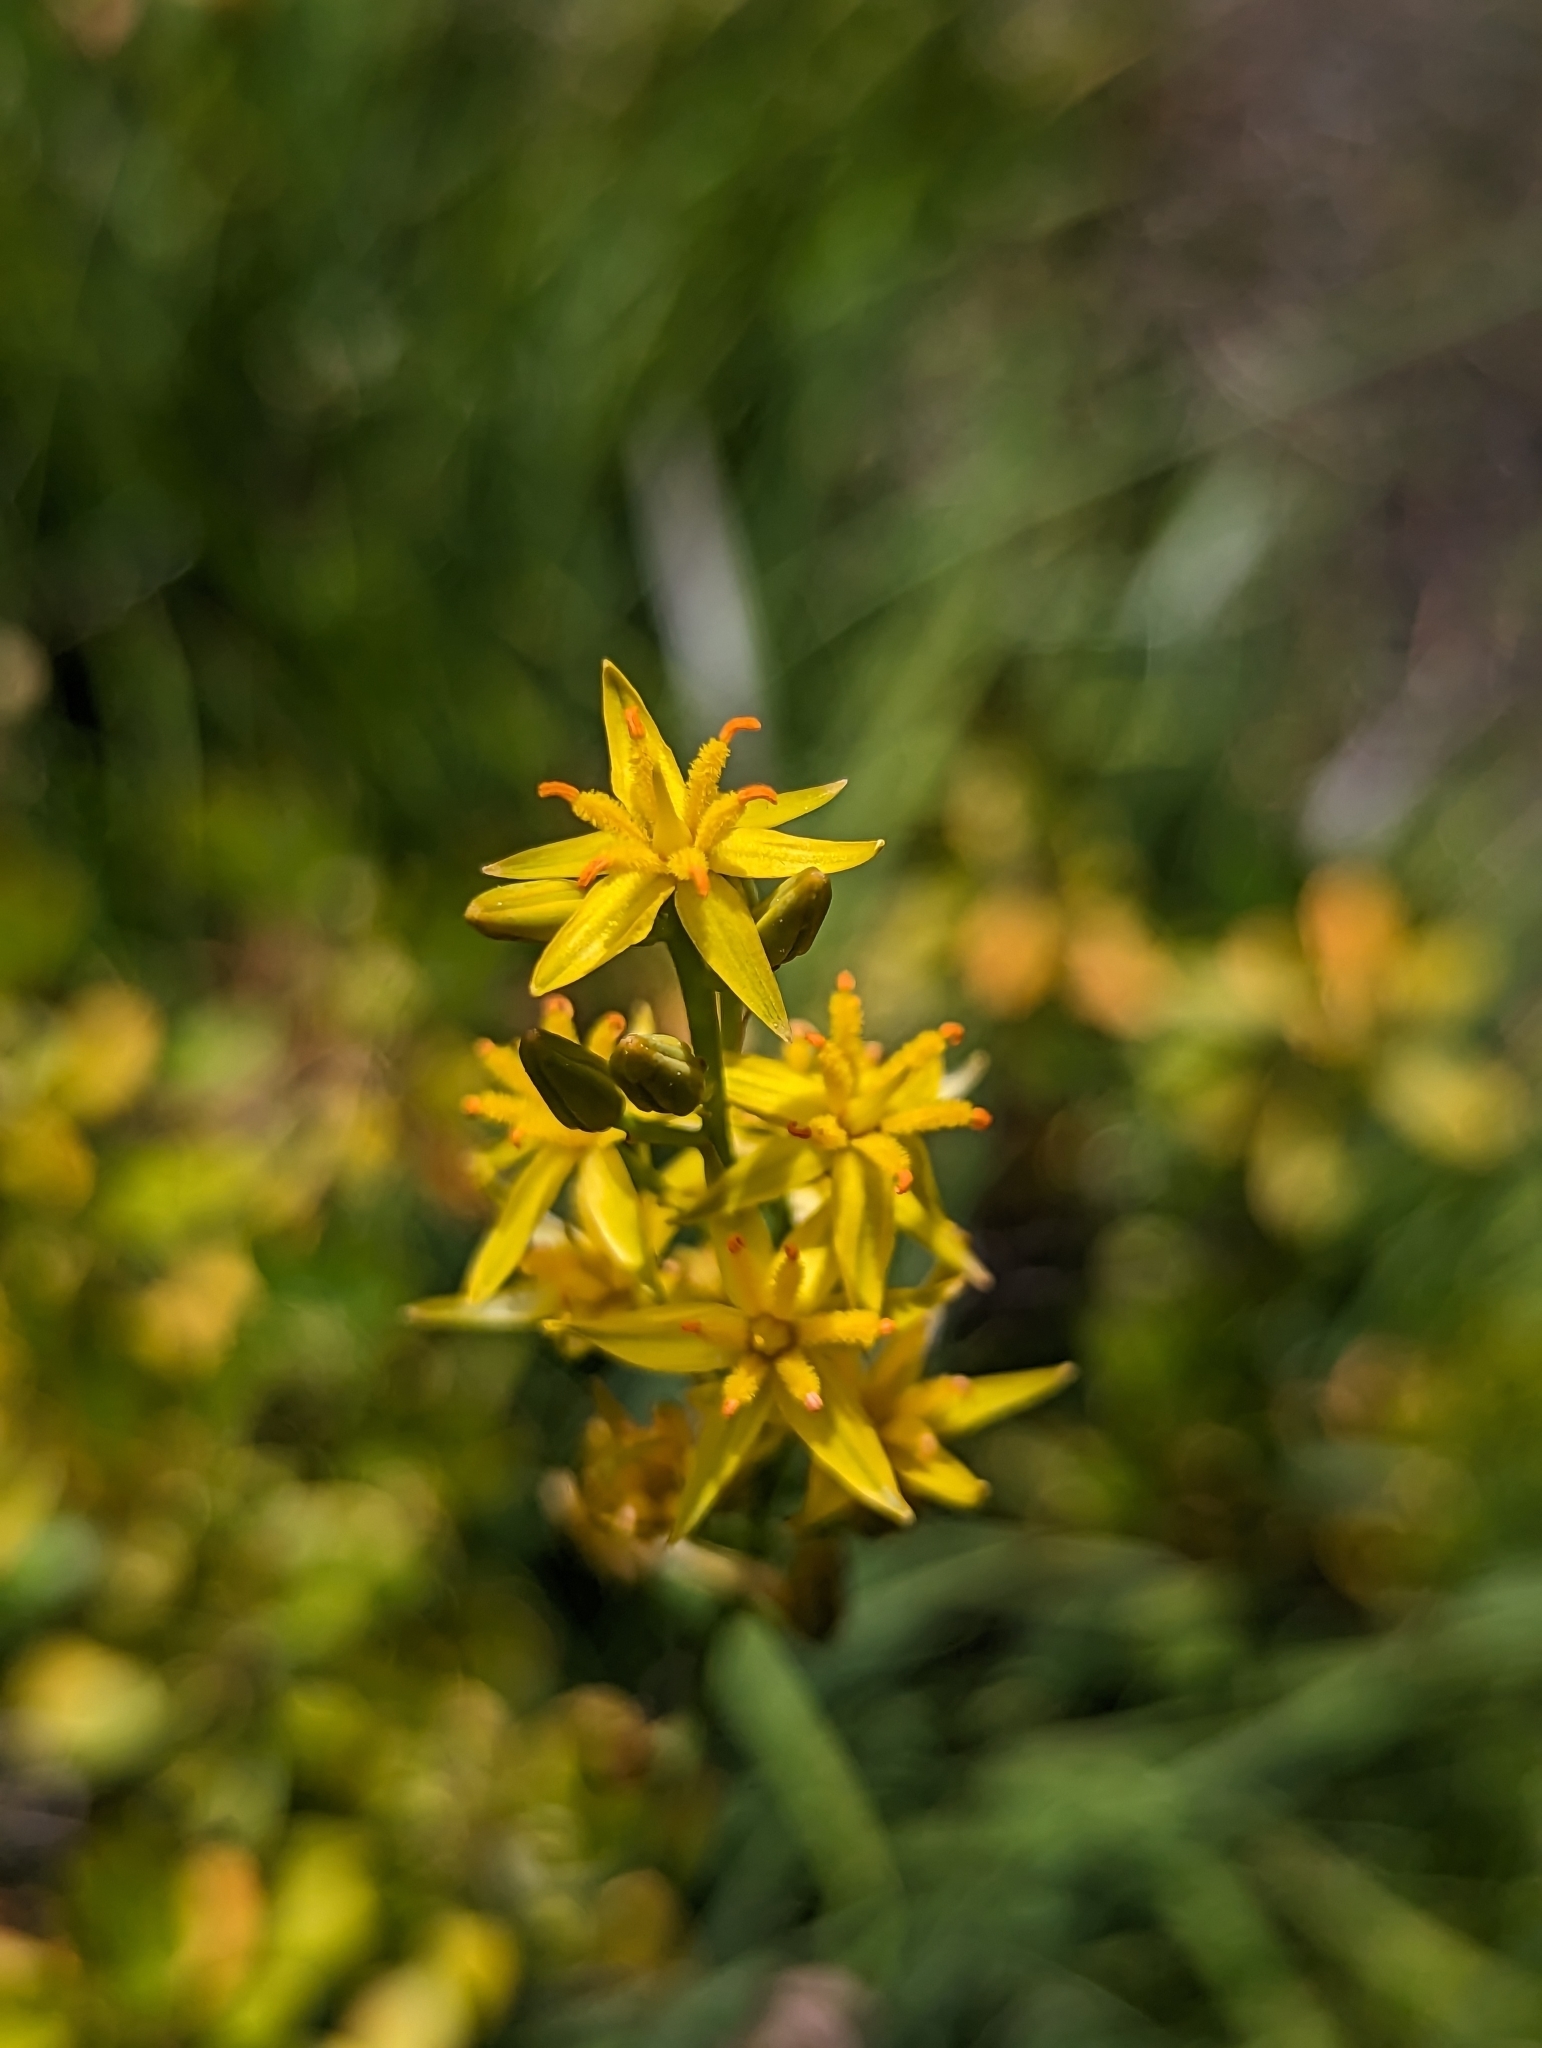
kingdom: Plantae
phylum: Tracheophyta
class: Liliopsida
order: Dioscoreales
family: Nartheciaceae
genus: Narthecium
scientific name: Narthecium californicum
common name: California bog-asphodel
